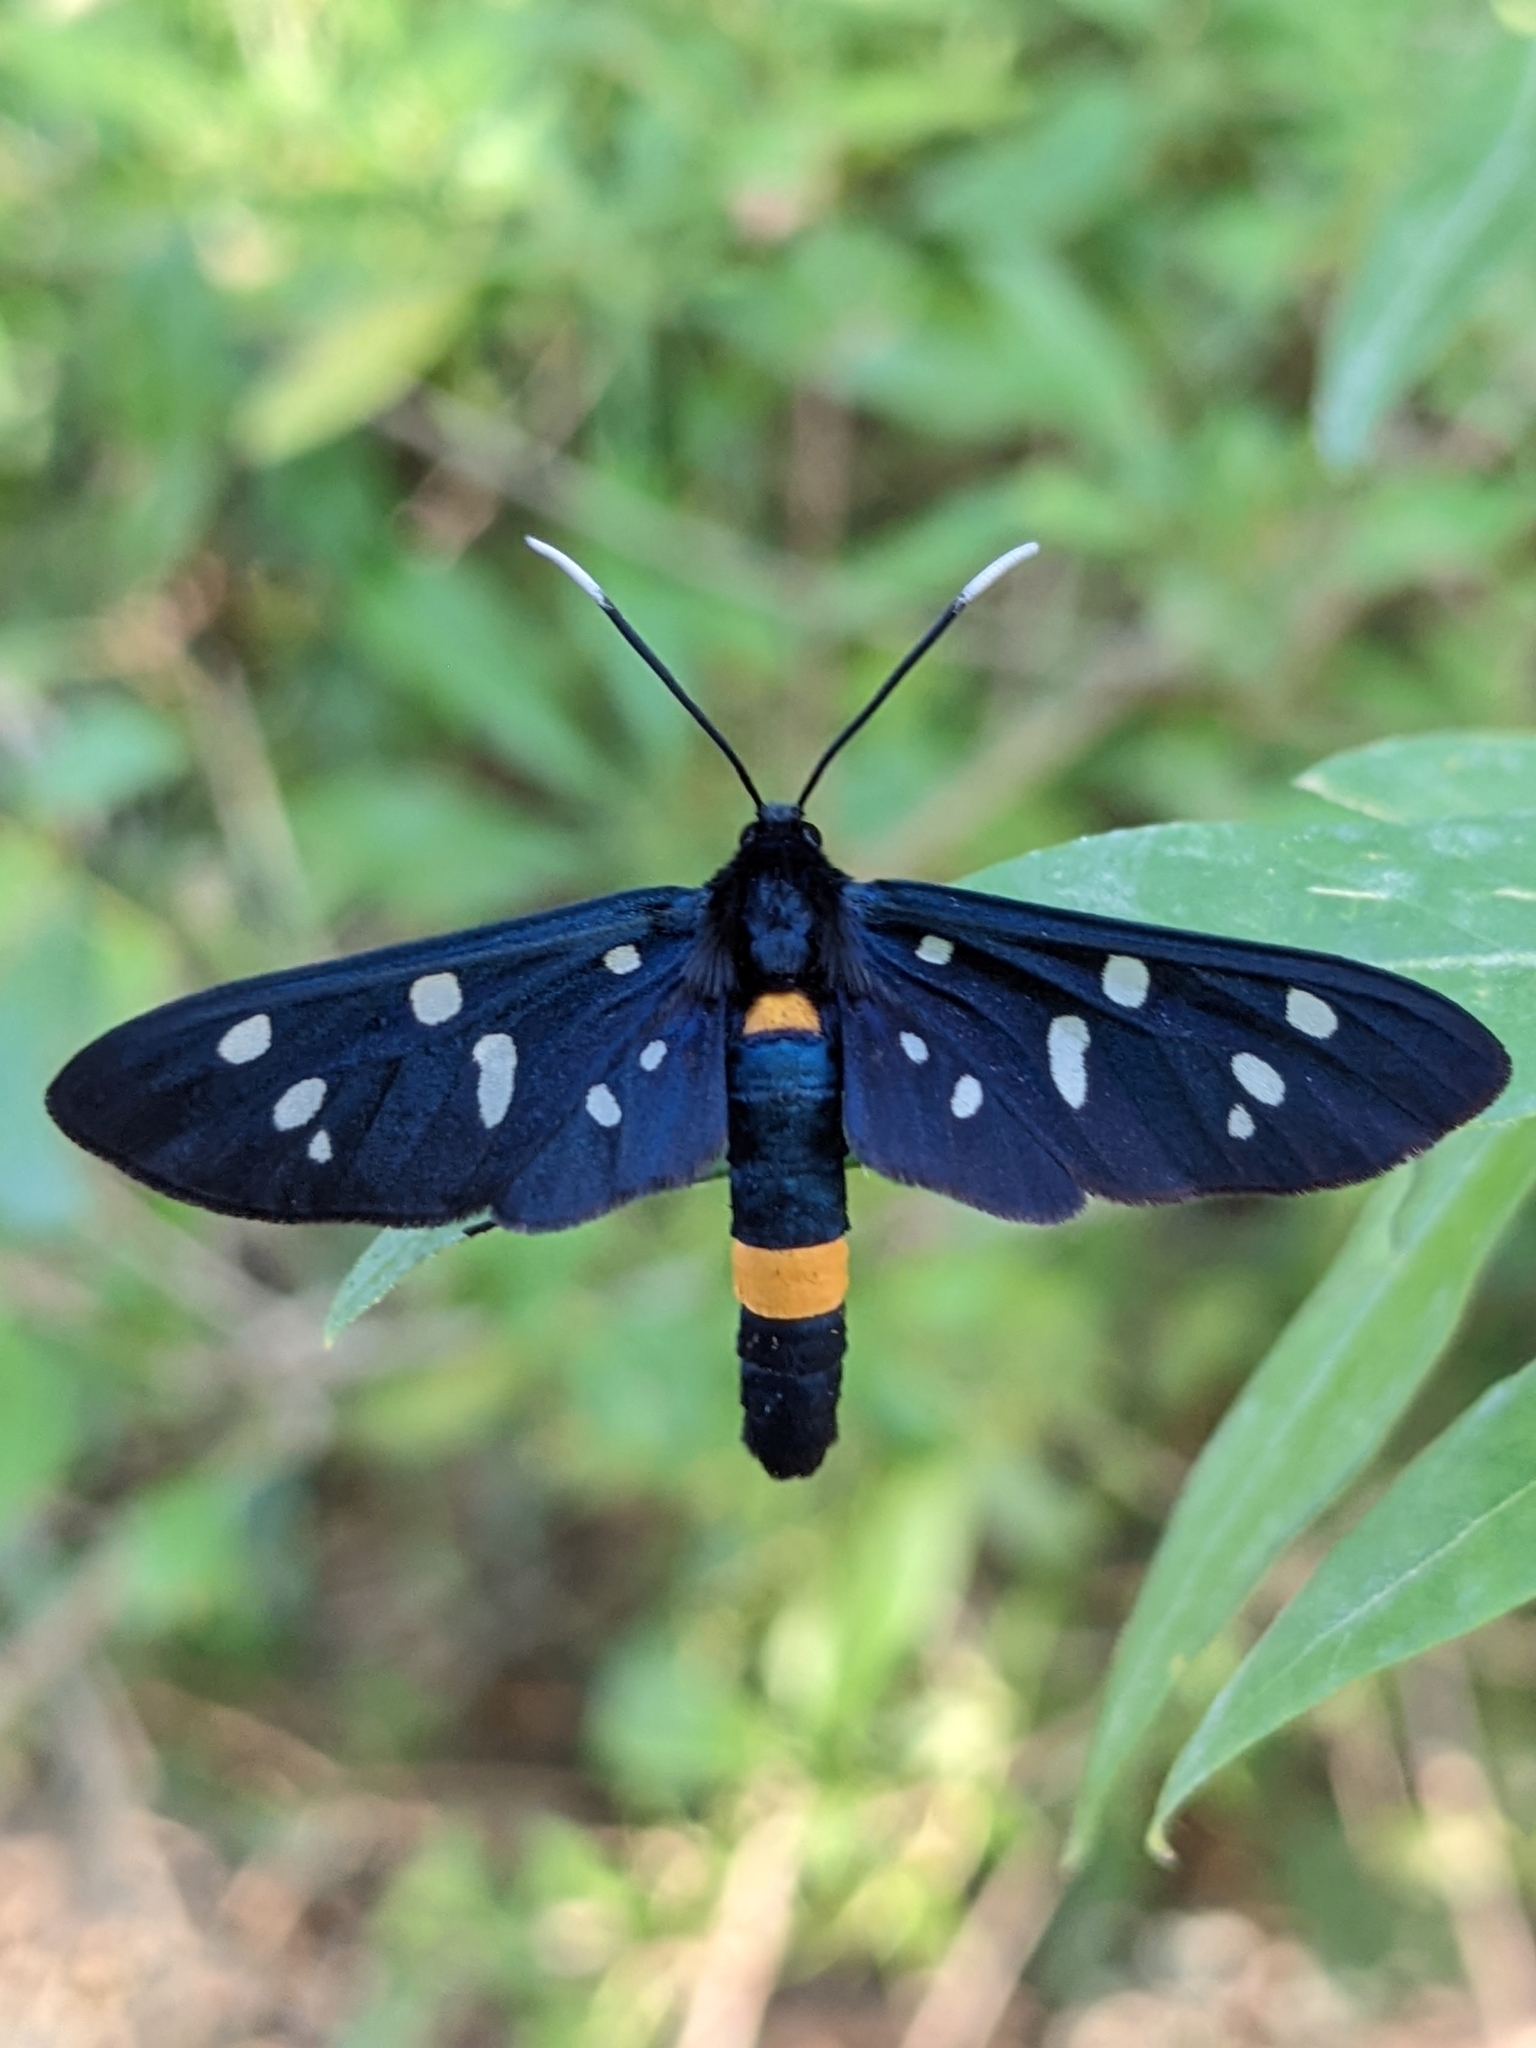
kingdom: Animalia
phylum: Arthropoda
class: Insecta
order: Lepidoptera
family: Erebidae
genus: Amata
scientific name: Amata phegea
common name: Nine-spotted
